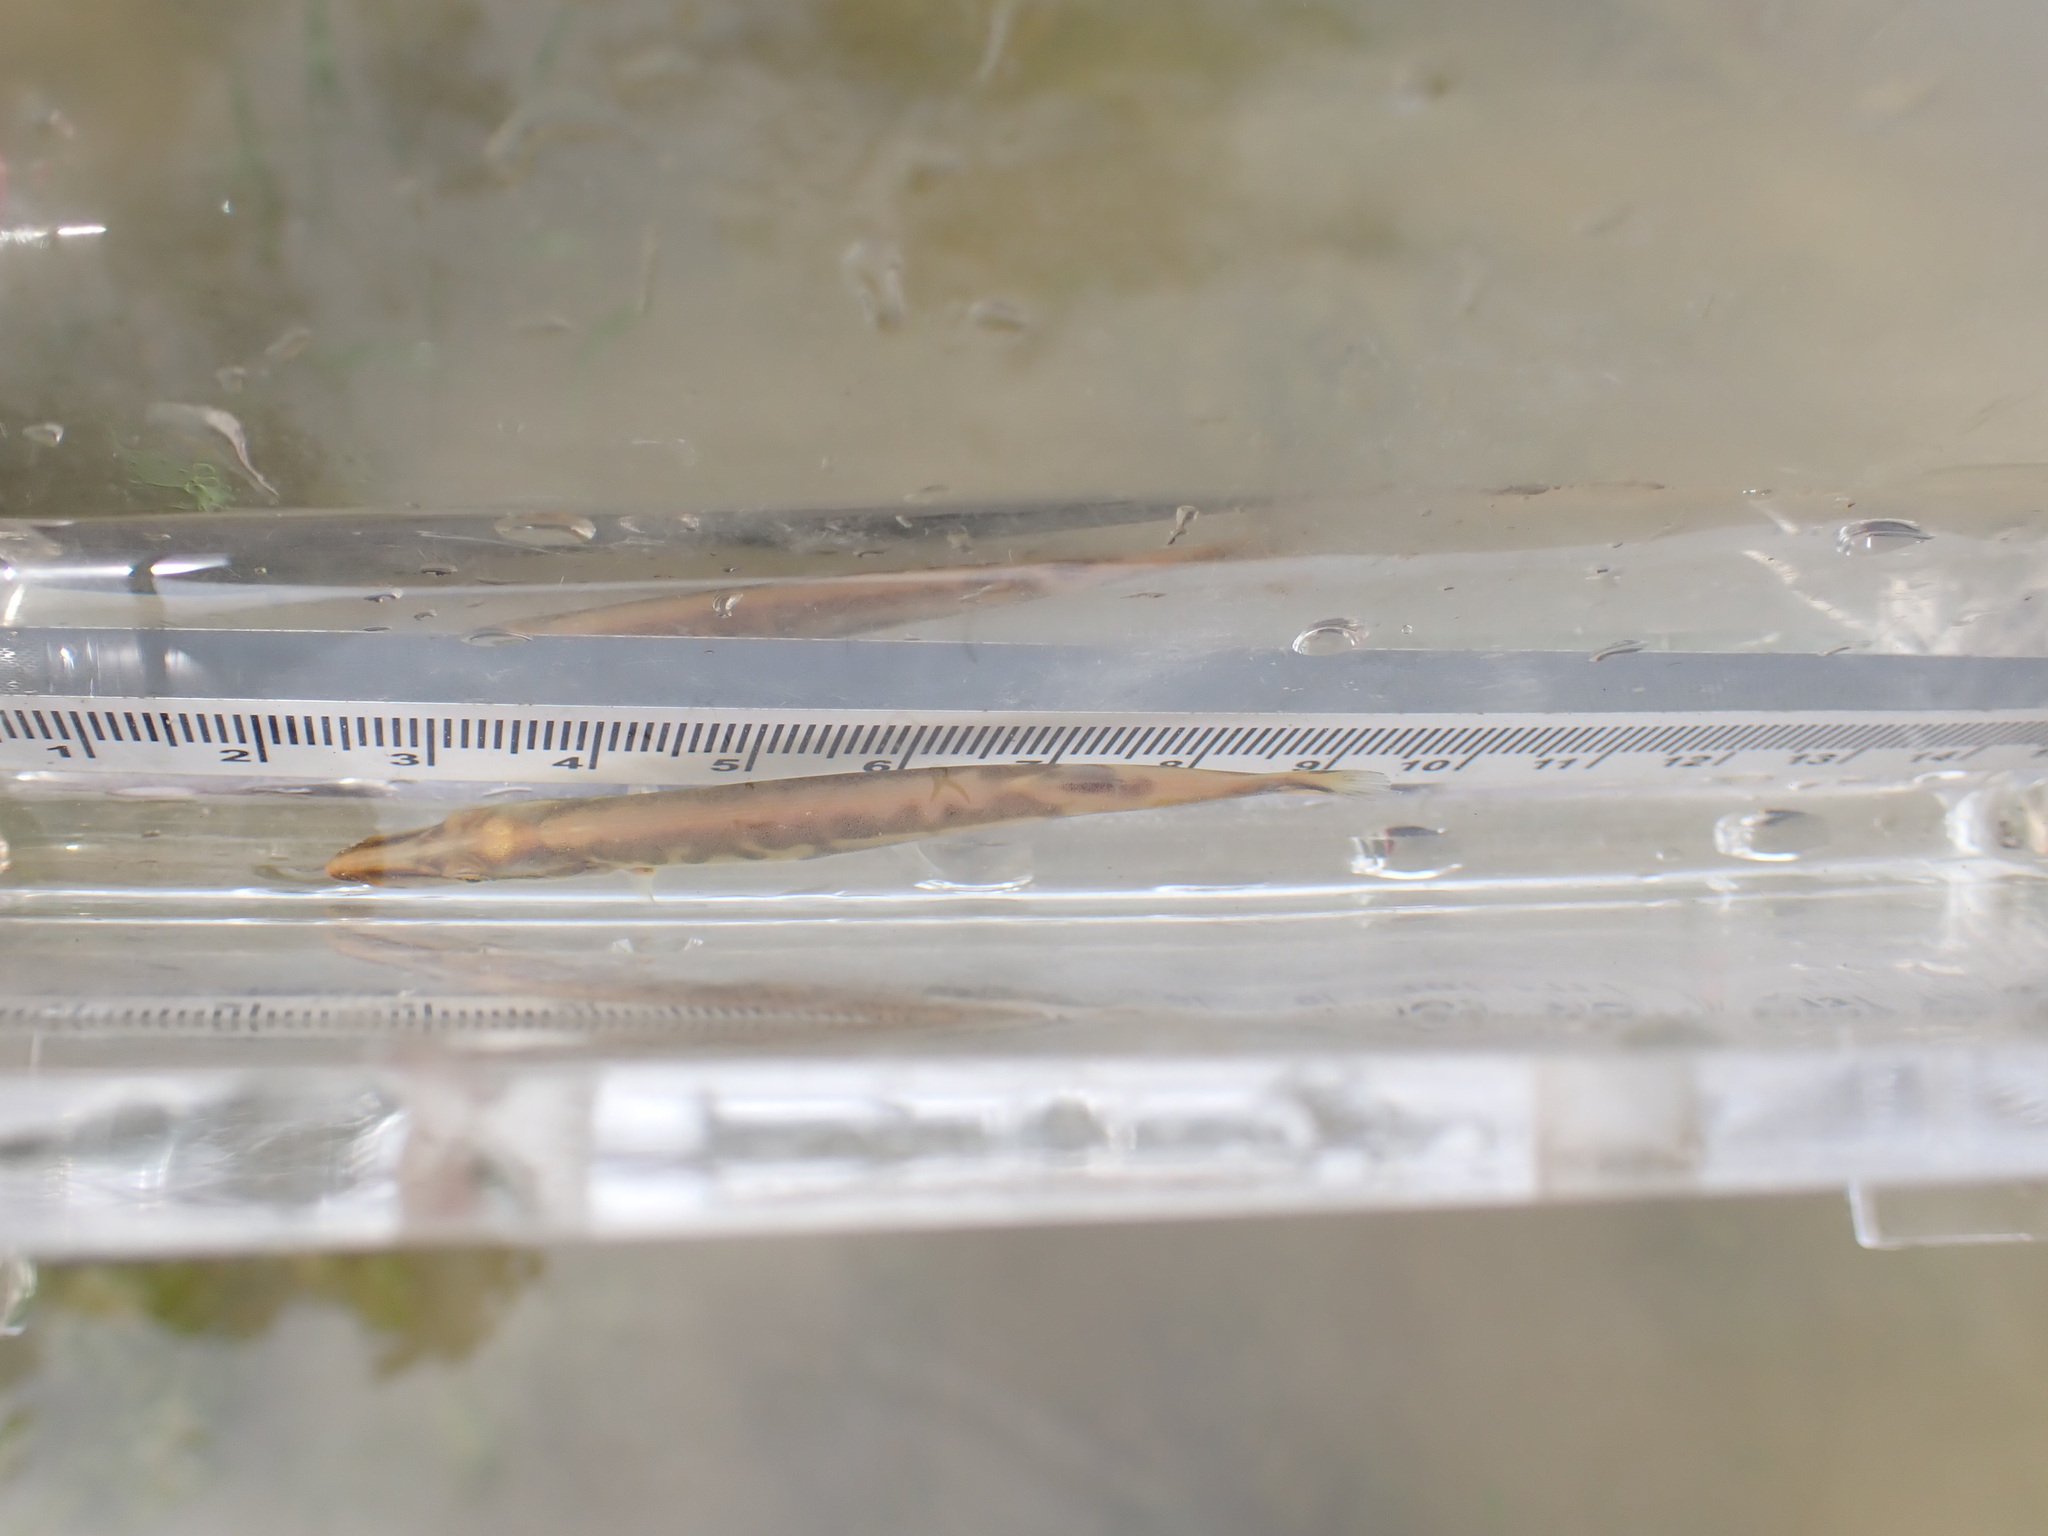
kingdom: Animalia
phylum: Chordata
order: Esociformes
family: Esocidae
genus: Esox
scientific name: Esox masquinongy
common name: Muskellunge
